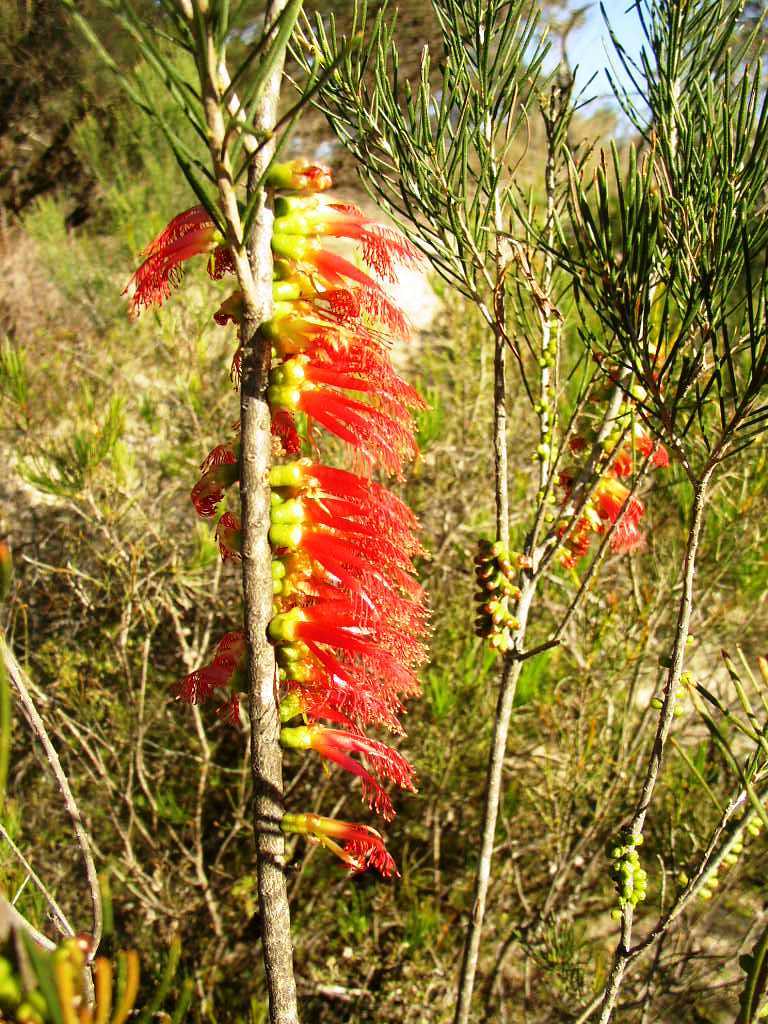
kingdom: Plantae
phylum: Tracheophyta
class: Magnoliopsida
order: Myrtales
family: Myrtaceae
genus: Melaleuca
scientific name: Melaleuca quadrifida
